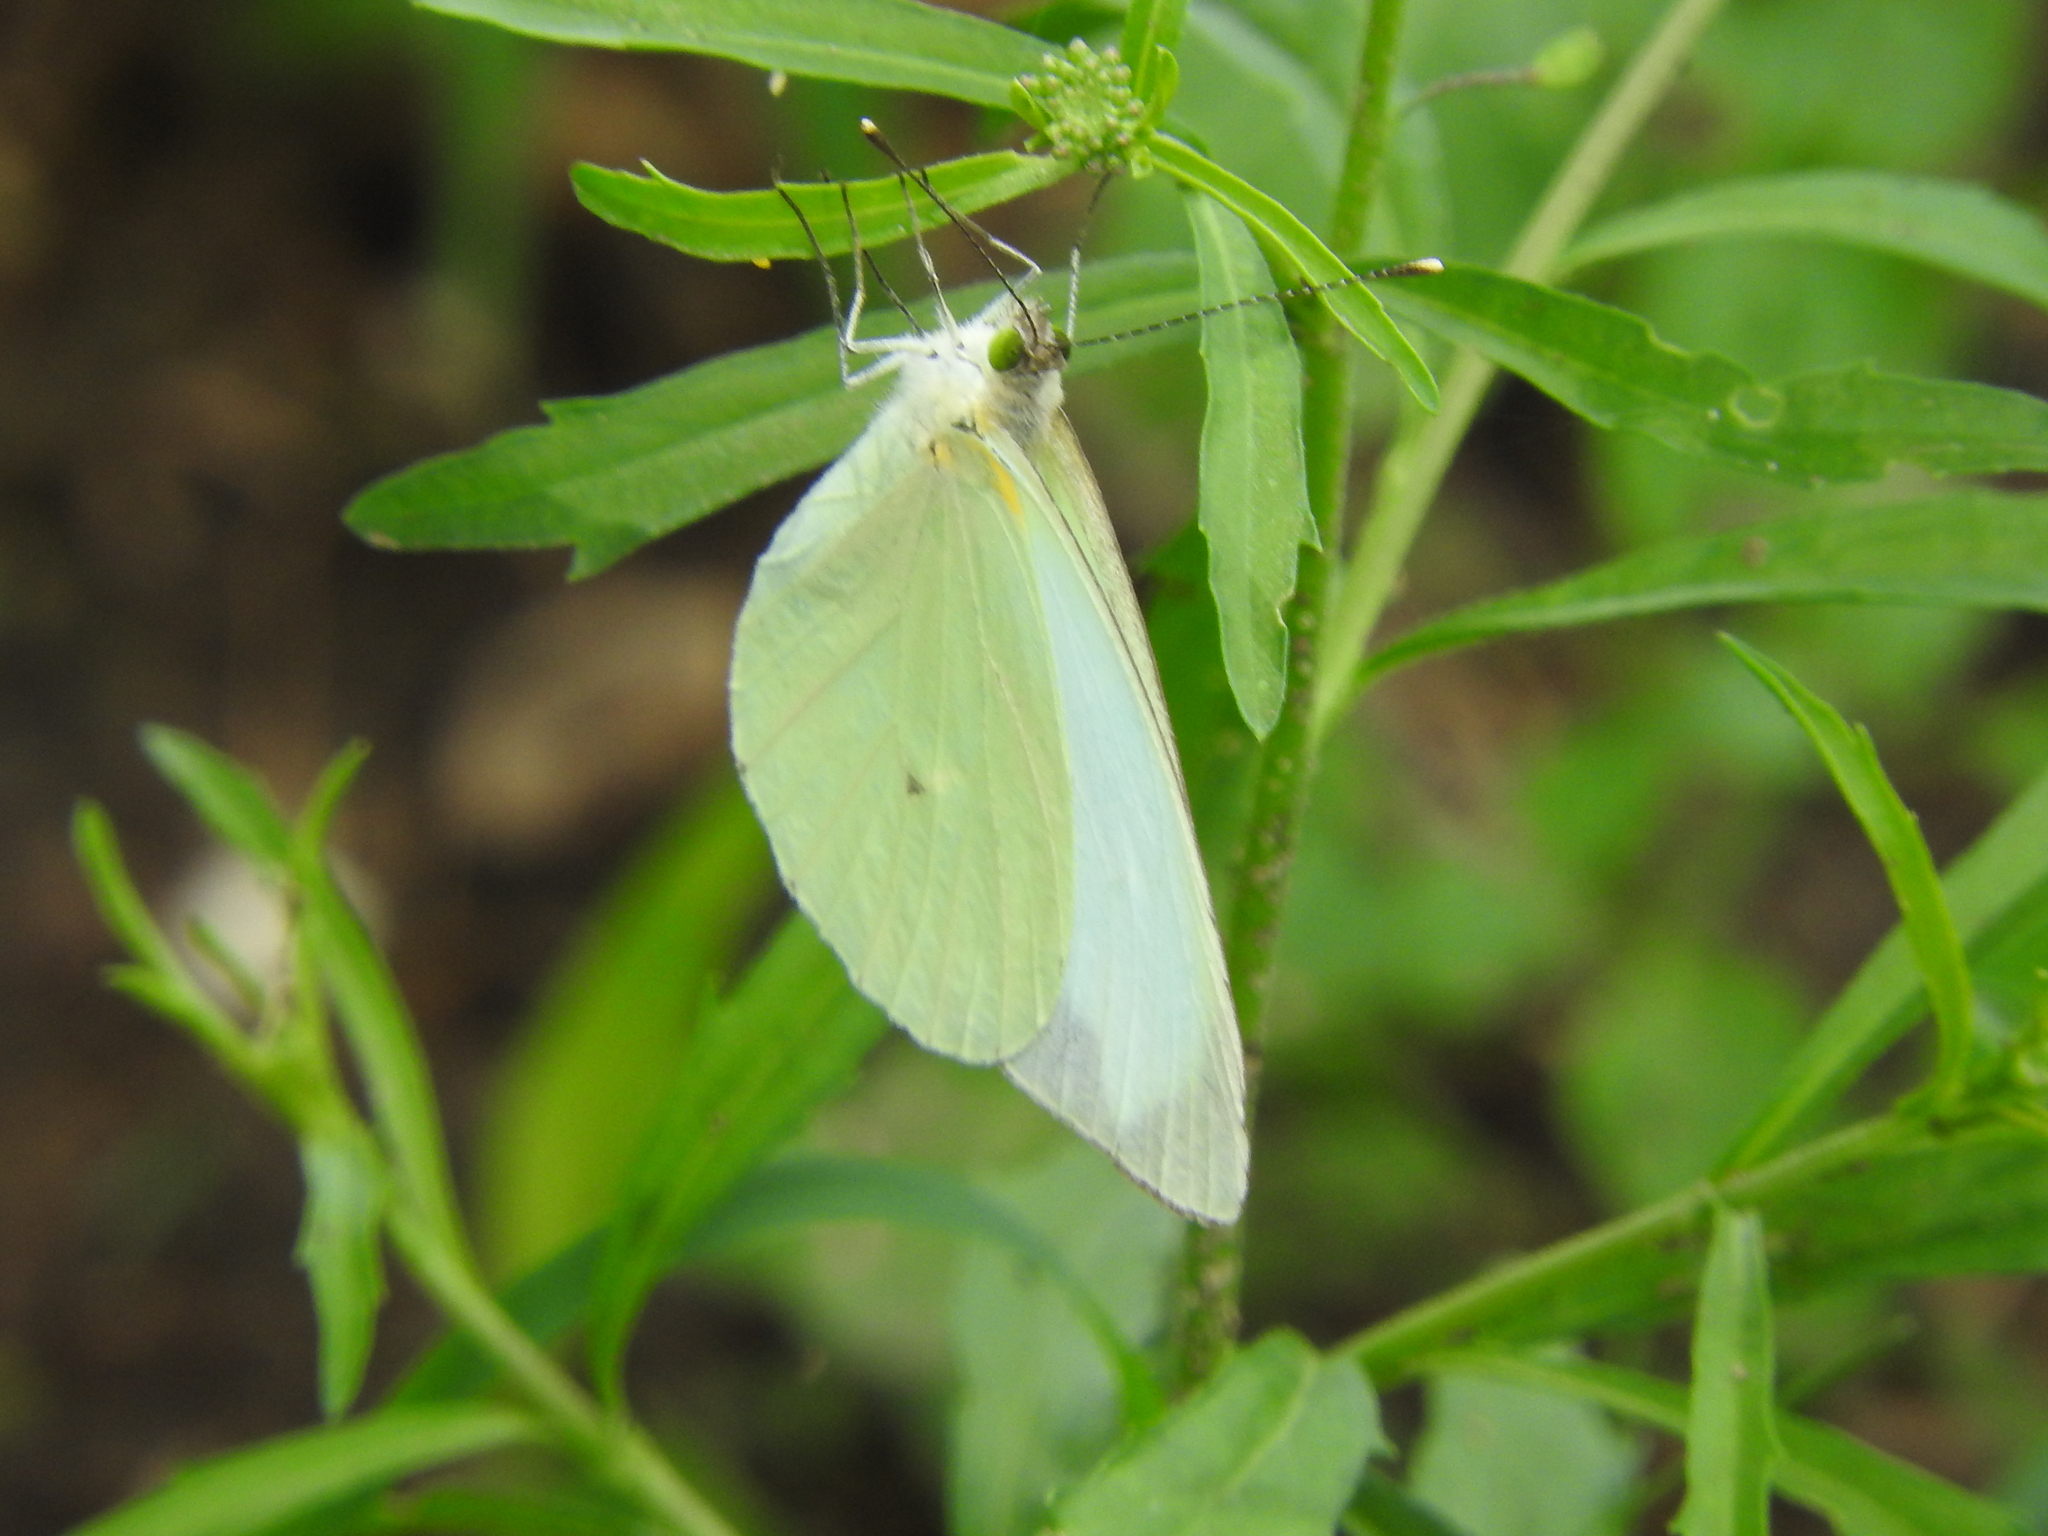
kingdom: Animalia
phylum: Arthropoda
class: Insecta
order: Lepidoptera
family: Pieridae
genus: Leptophobia
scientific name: Leptophobia aripa
